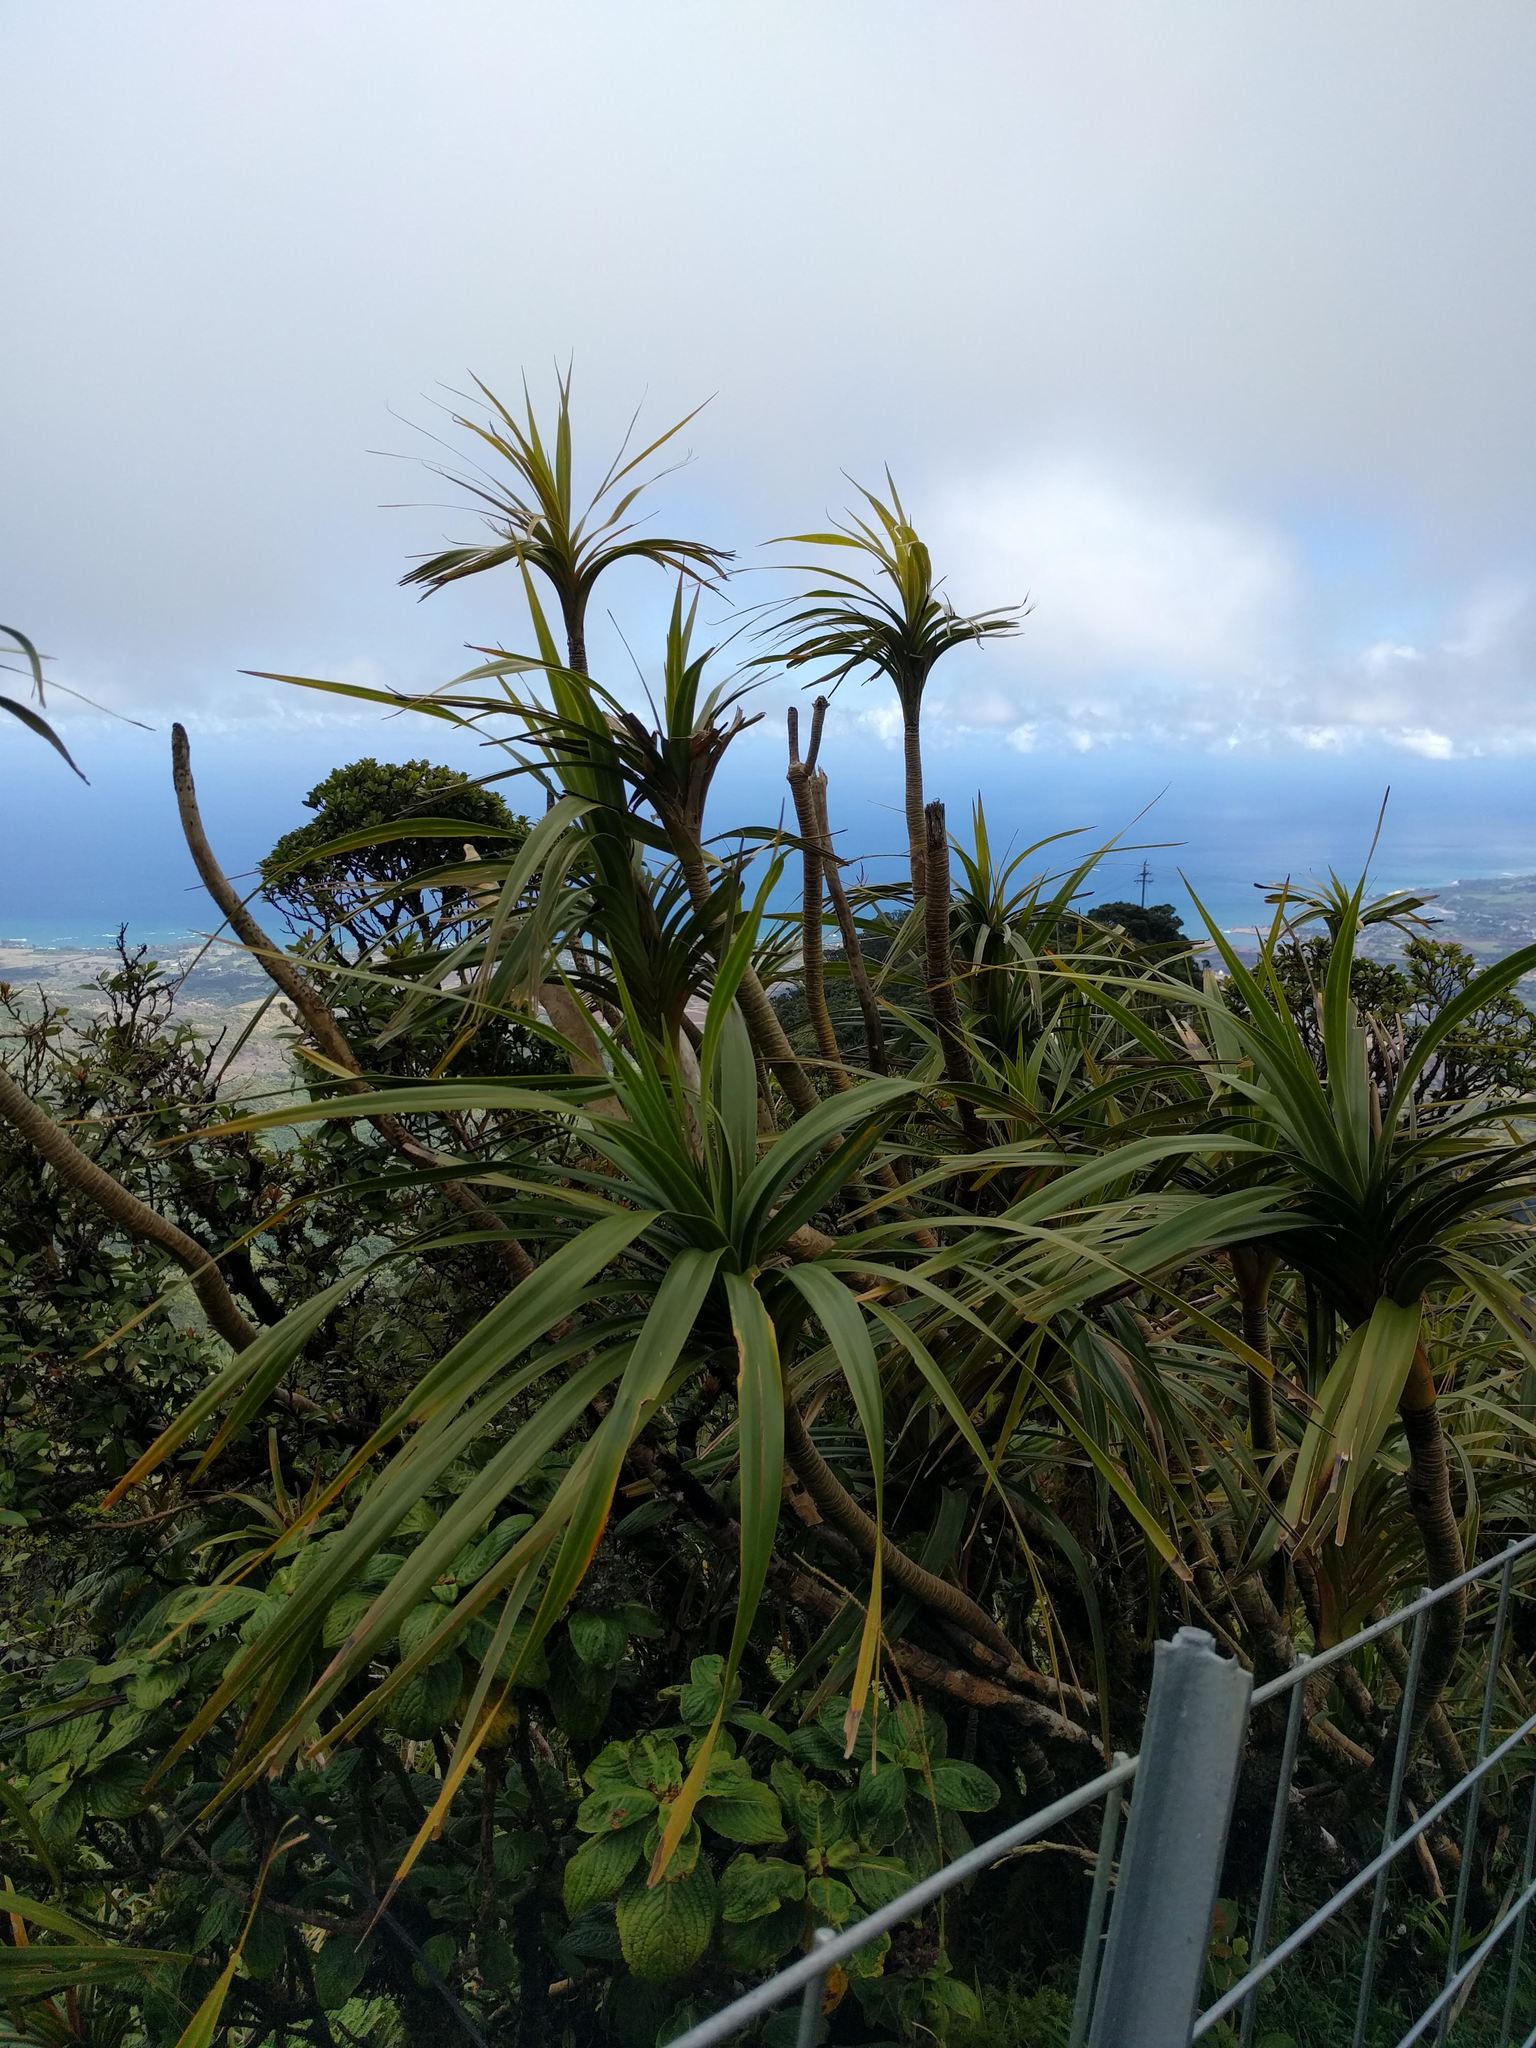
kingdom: Plantae
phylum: Tracheophyta
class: Liliopsida
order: Pandanales
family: Pandanaceae
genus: Freycinetia
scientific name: Freycinetia arborea
